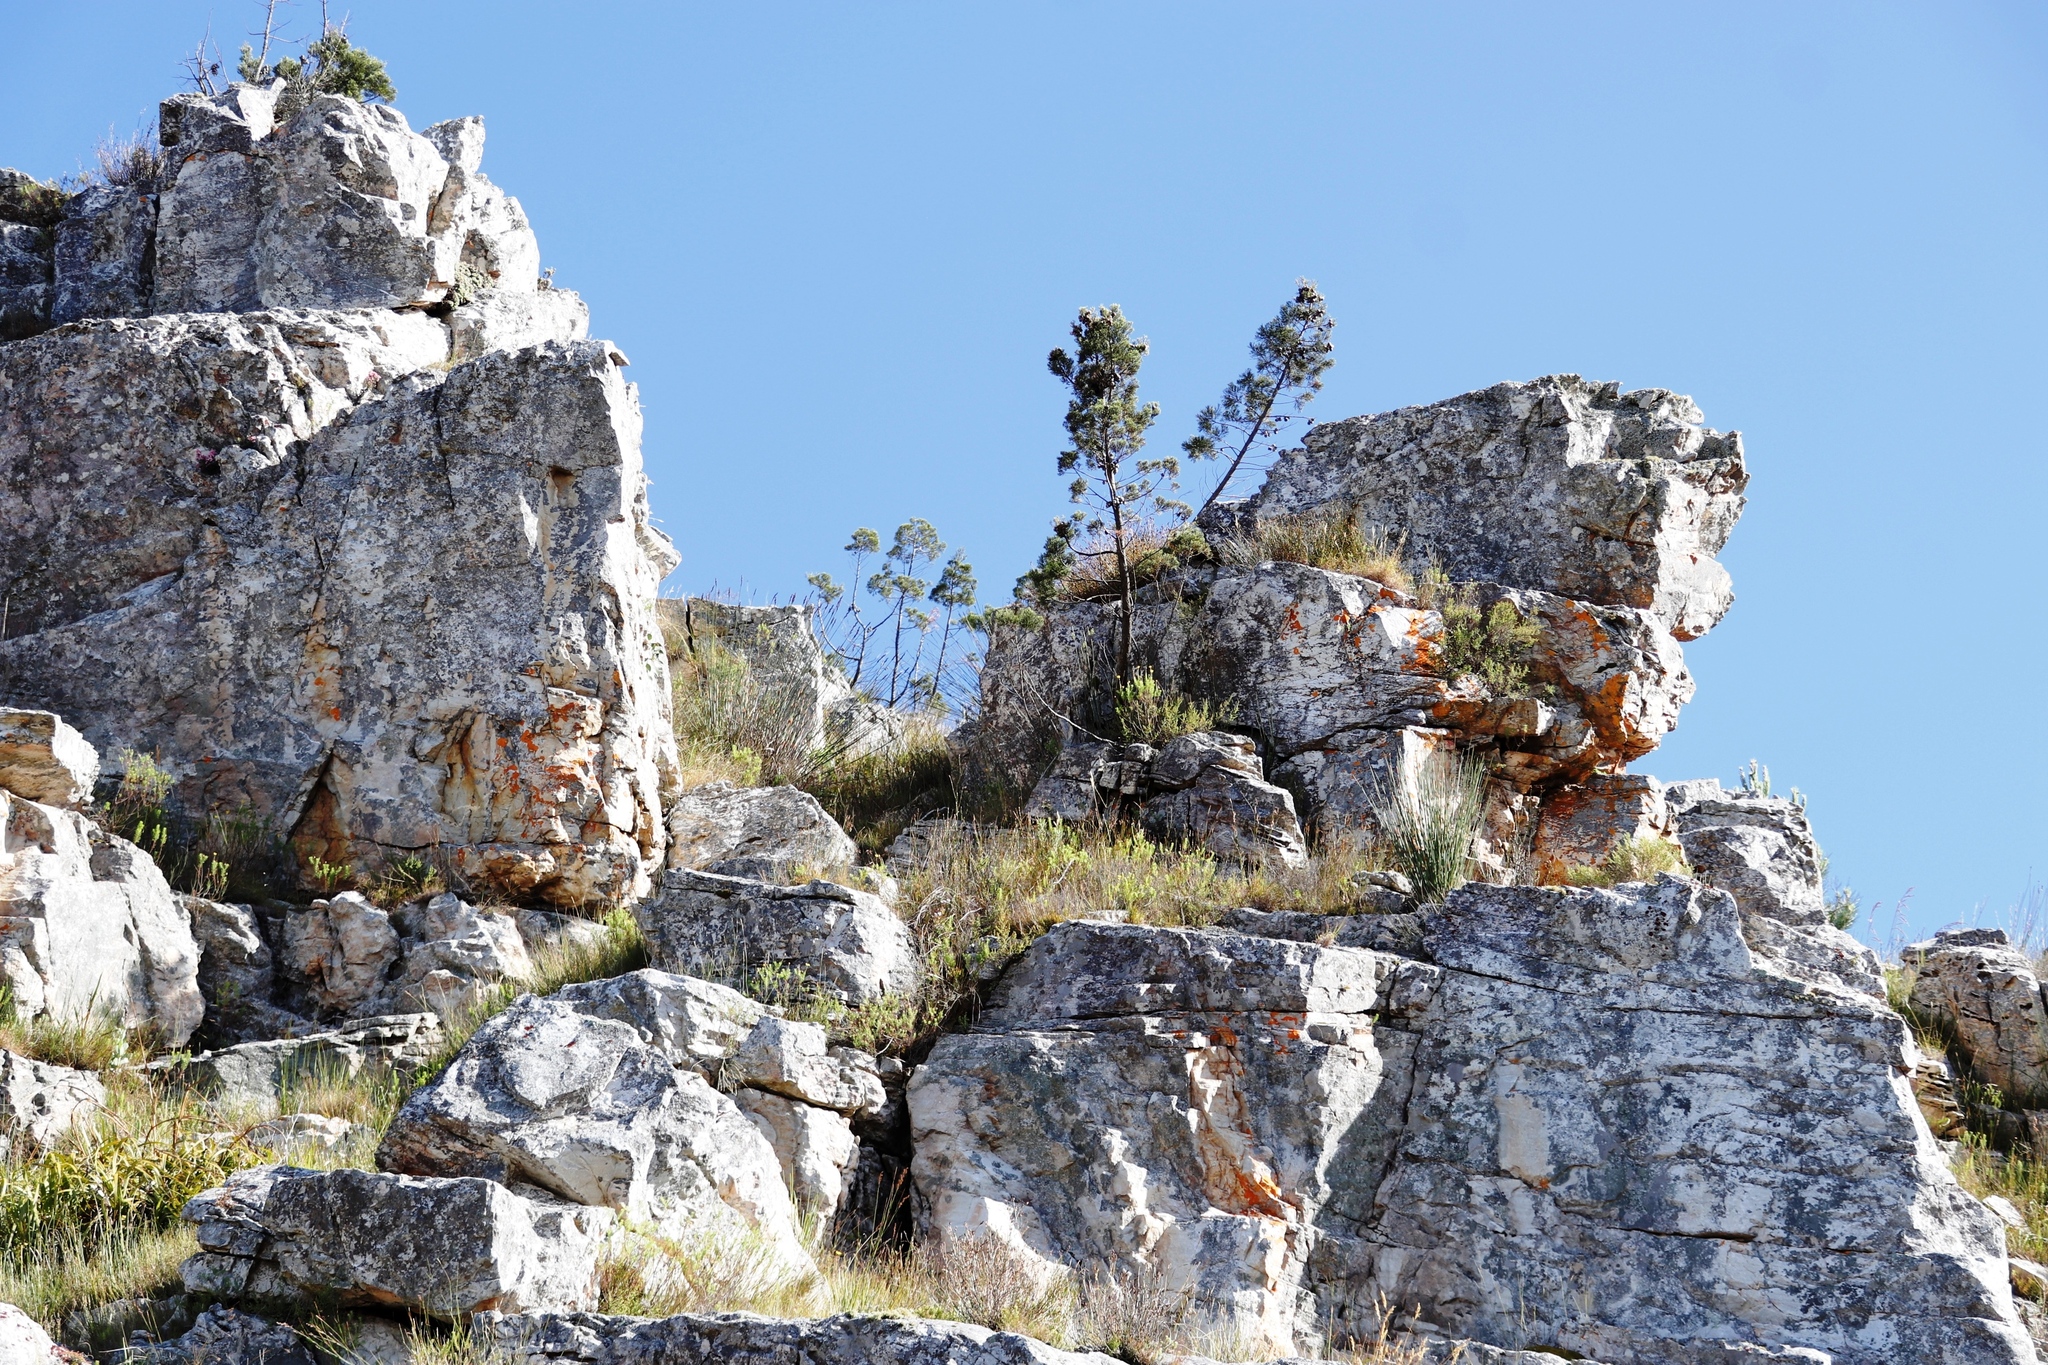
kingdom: Plantae
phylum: Tracheophyta
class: Pinopsida
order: Pinales
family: Cupressaceae
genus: Widdringtonia
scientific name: Widdringtonia nodiflora
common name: Cape cypress
